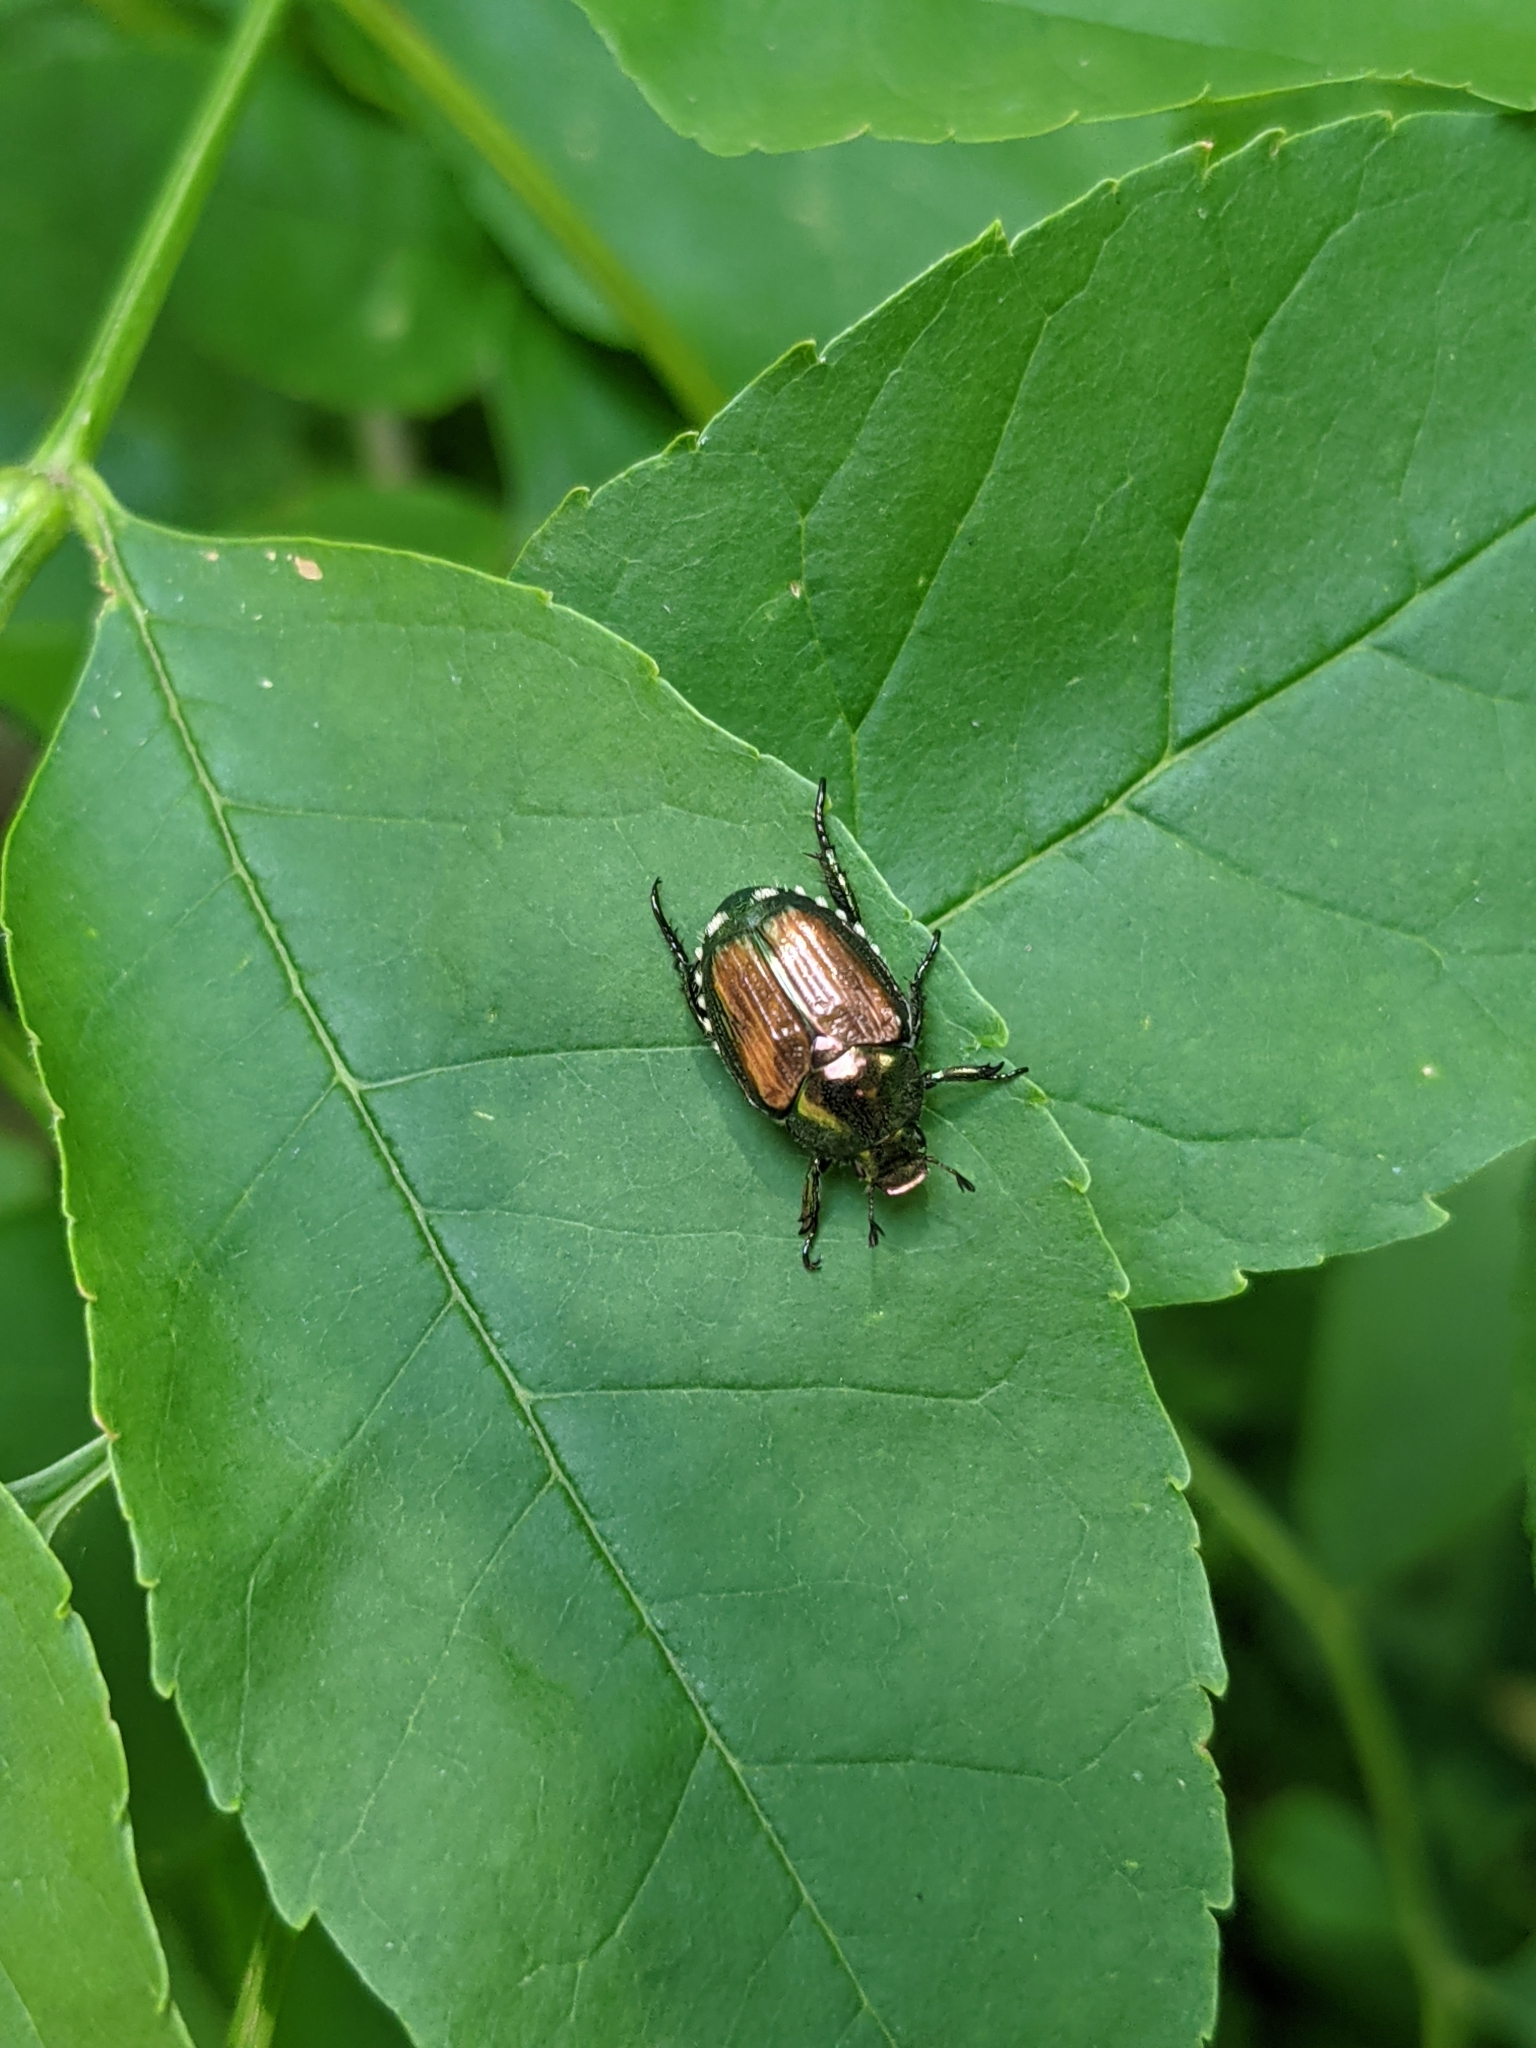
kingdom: Animalia
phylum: Arthropoda
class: Insecta
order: Coleoptera
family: Scarabaeidae
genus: Popillia
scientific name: Popillia japonica
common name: Japanese beetle
